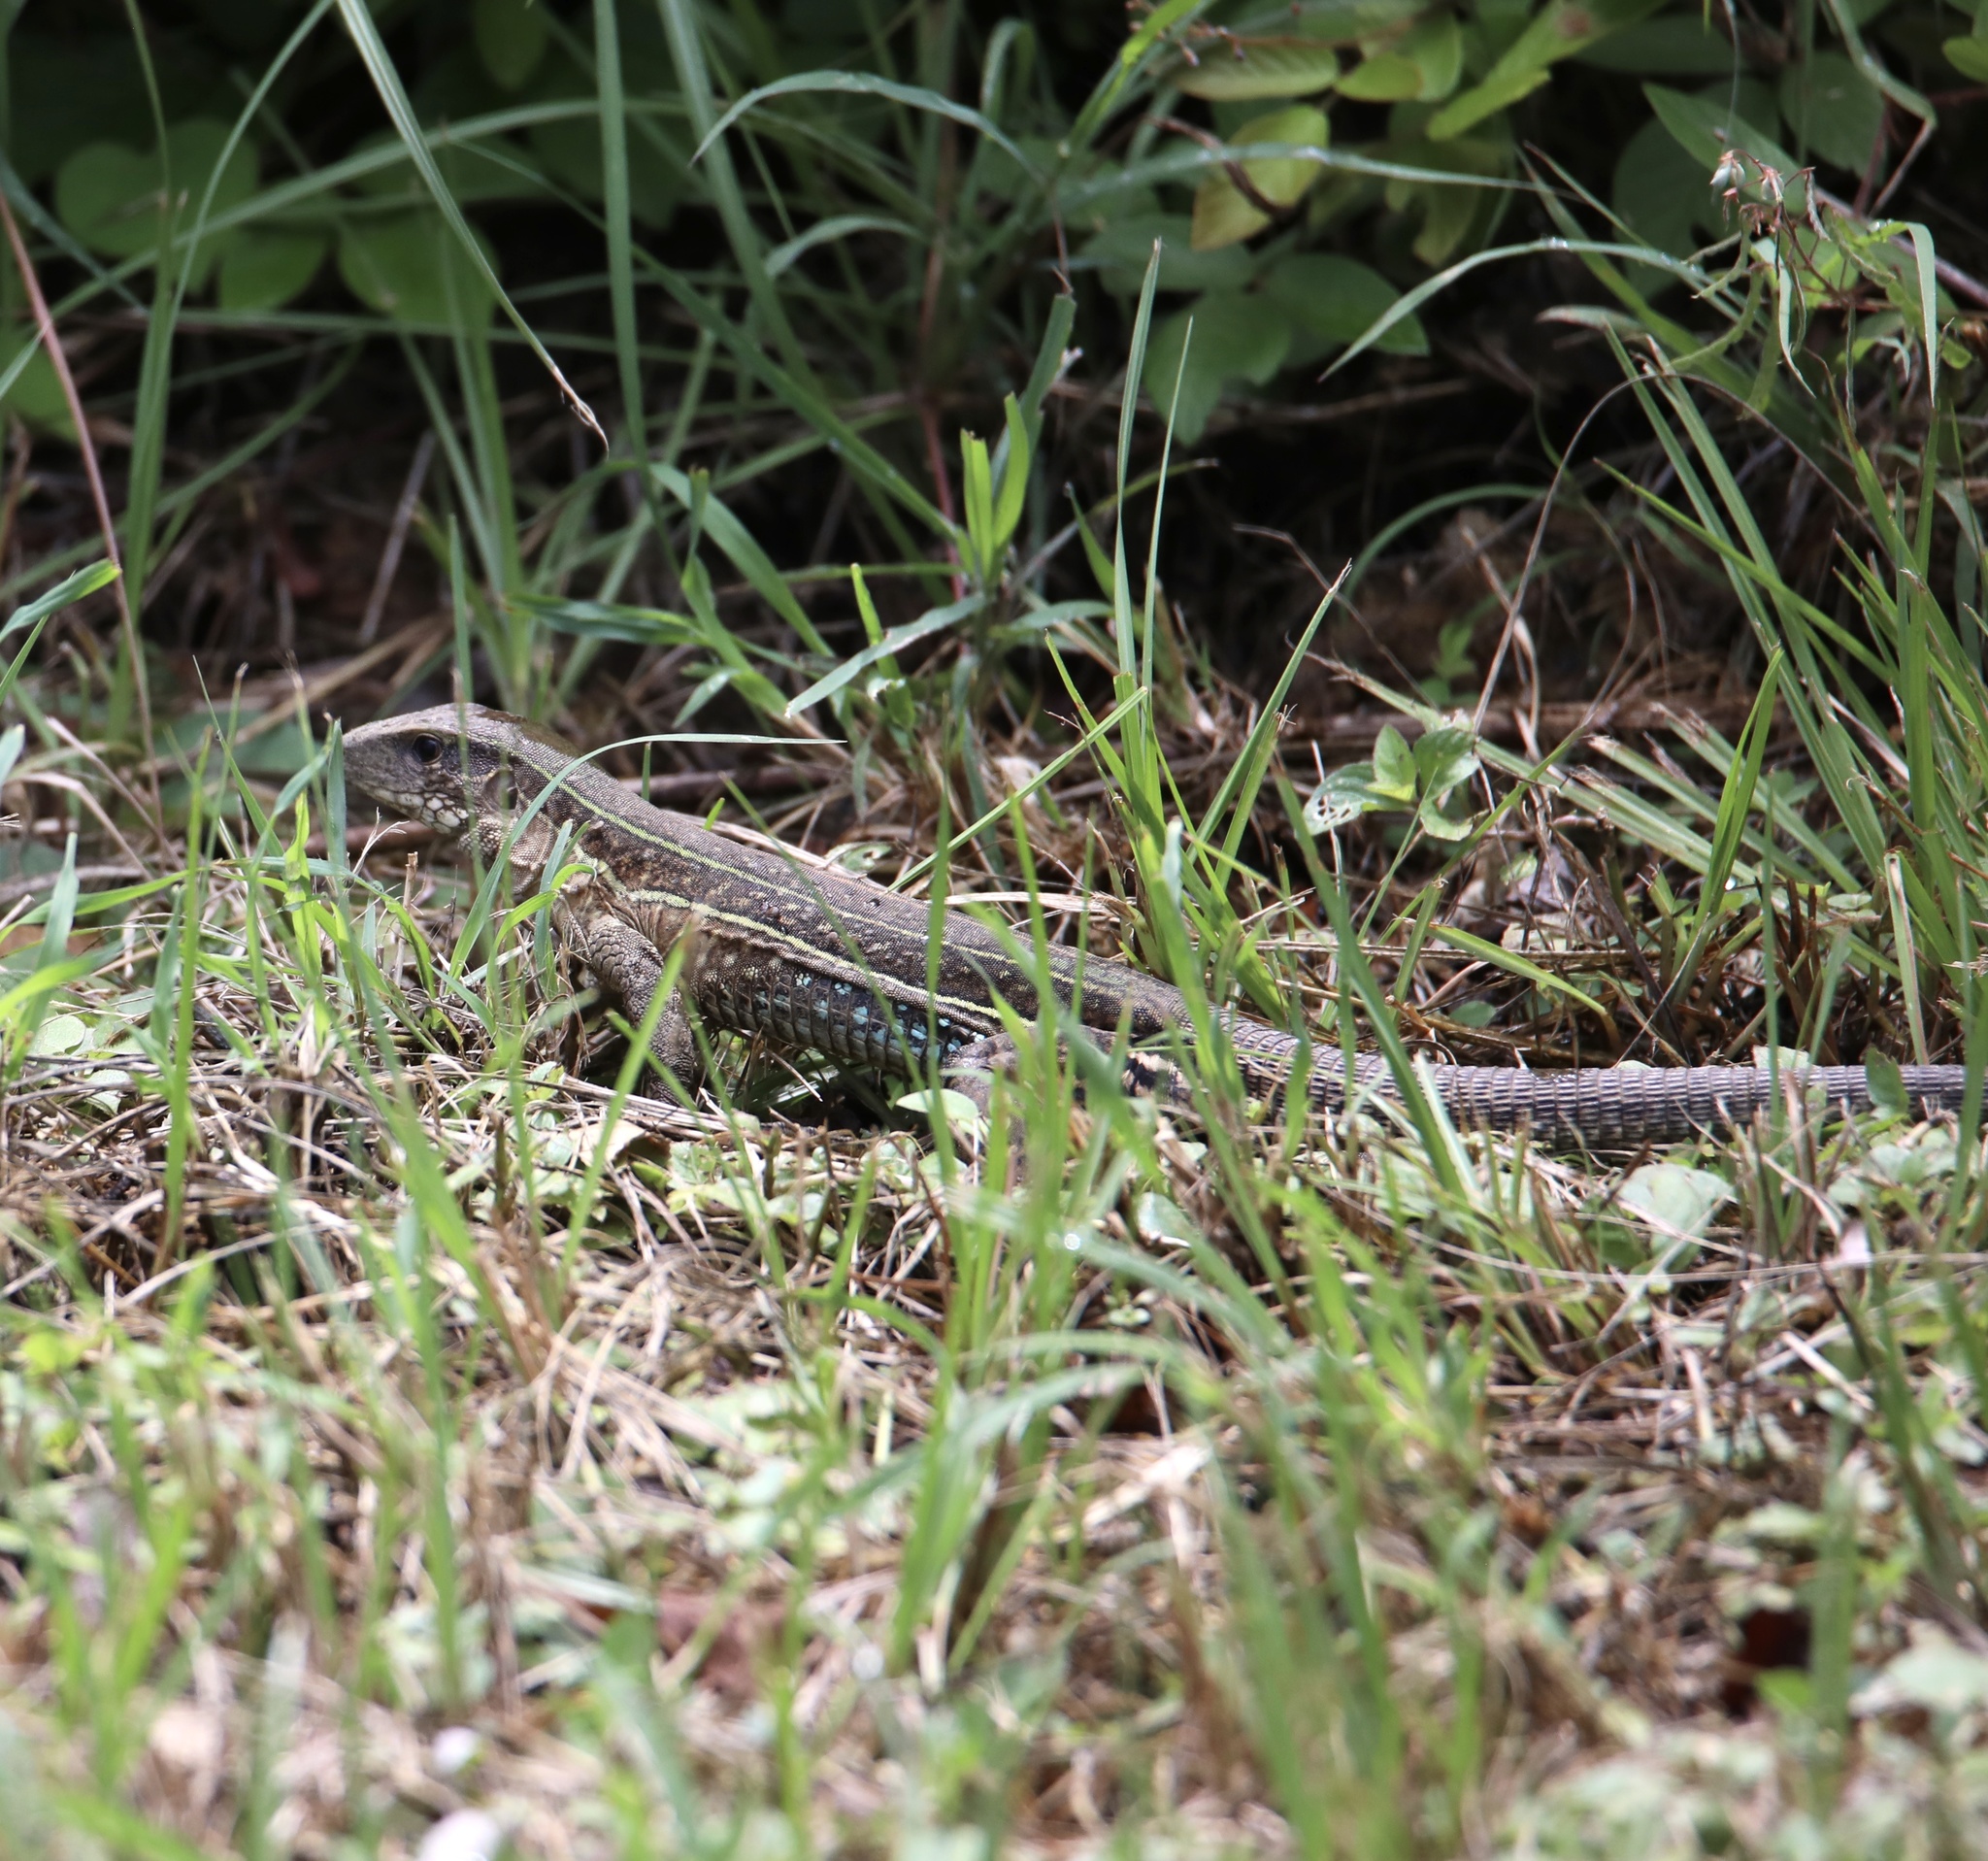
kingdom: Animalia
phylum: Chordata
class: Squamata
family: Teiidae
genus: Ameiva
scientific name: Ameiva praesignis
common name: Giant ameiva
